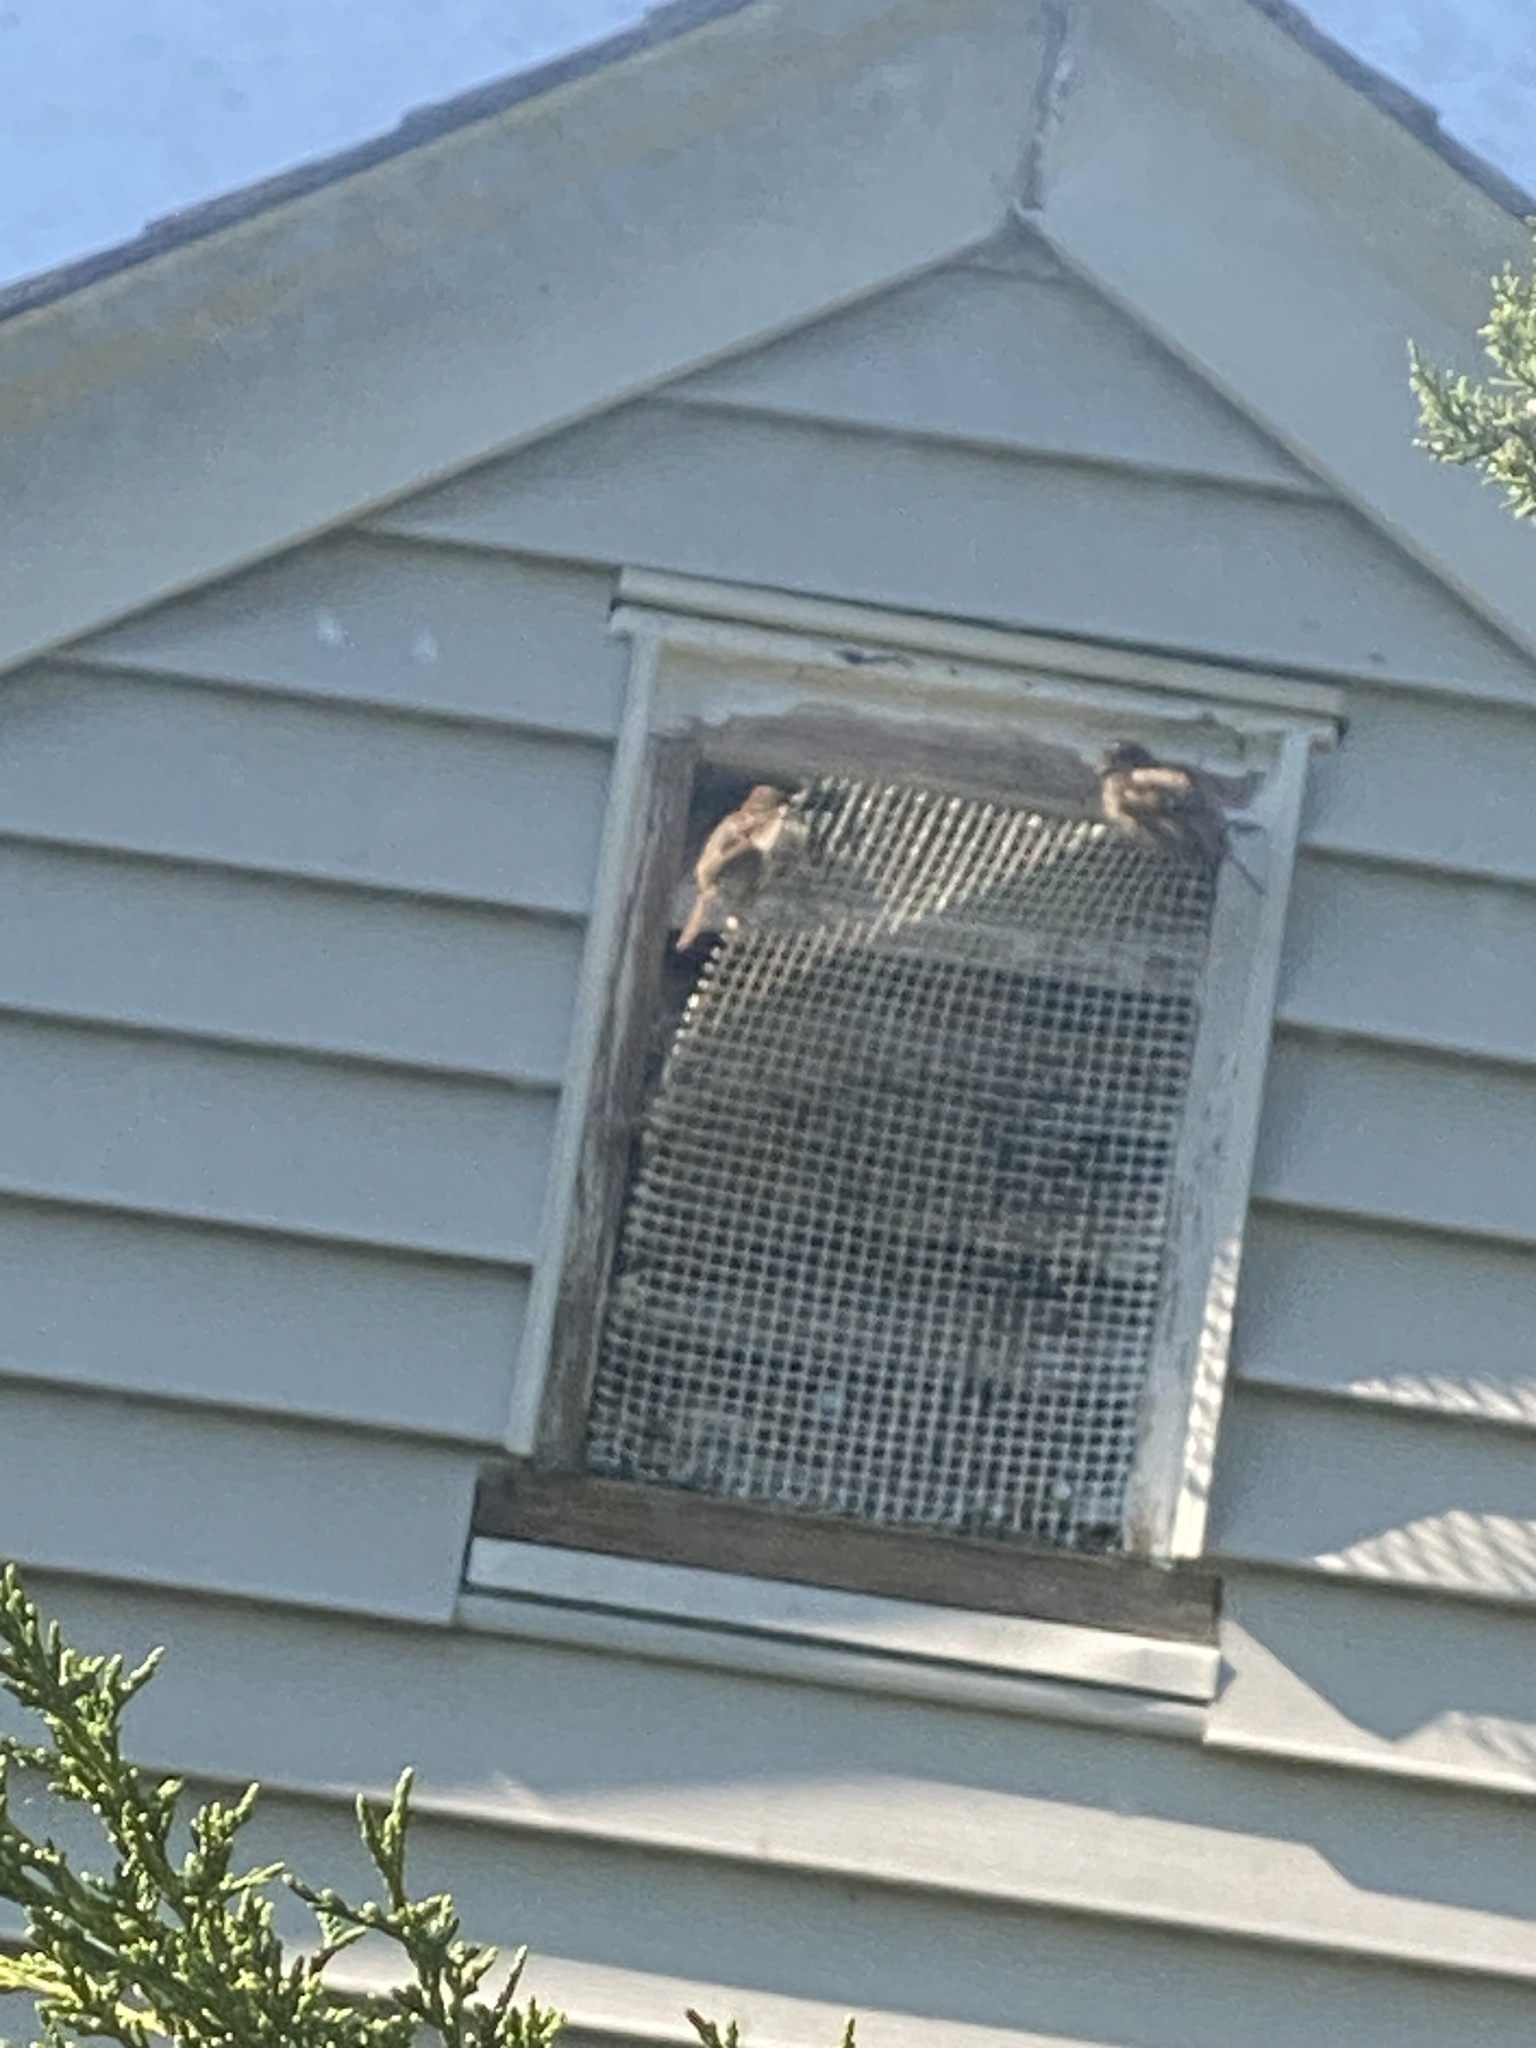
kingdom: Animalia
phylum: Chordata
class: Aves
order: Passeriformes
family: Passeridae
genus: Passer
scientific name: Passer domesticus
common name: House sparrow
